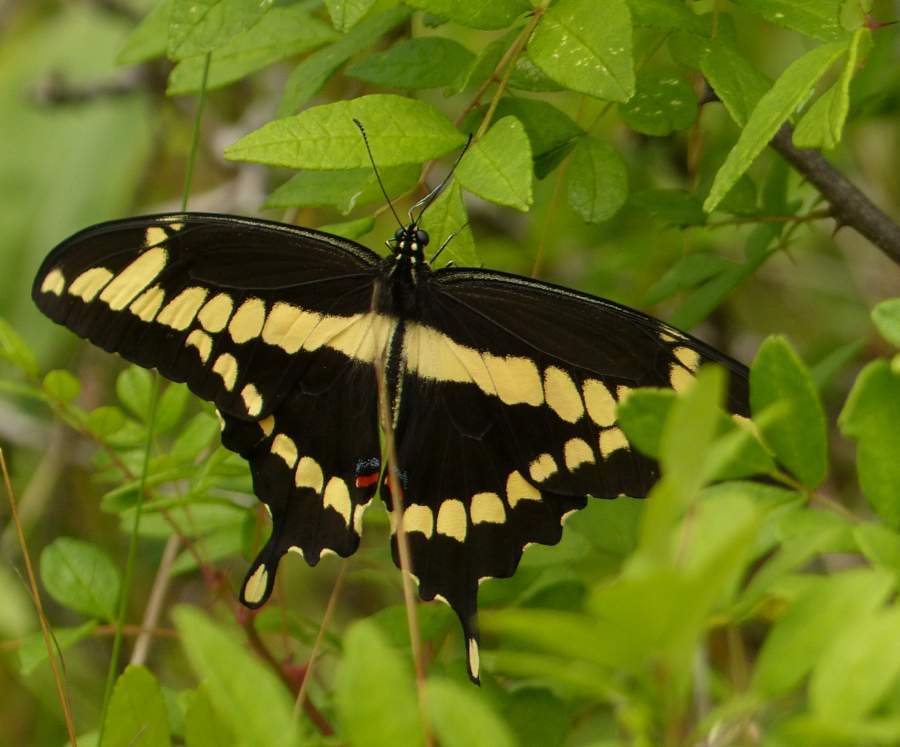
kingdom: Animalia
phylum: Arthropoda
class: Insecta
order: Lepidoptera
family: Papilionidae
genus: Papilio
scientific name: Papilio cresphontes
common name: Giant swallowtail
